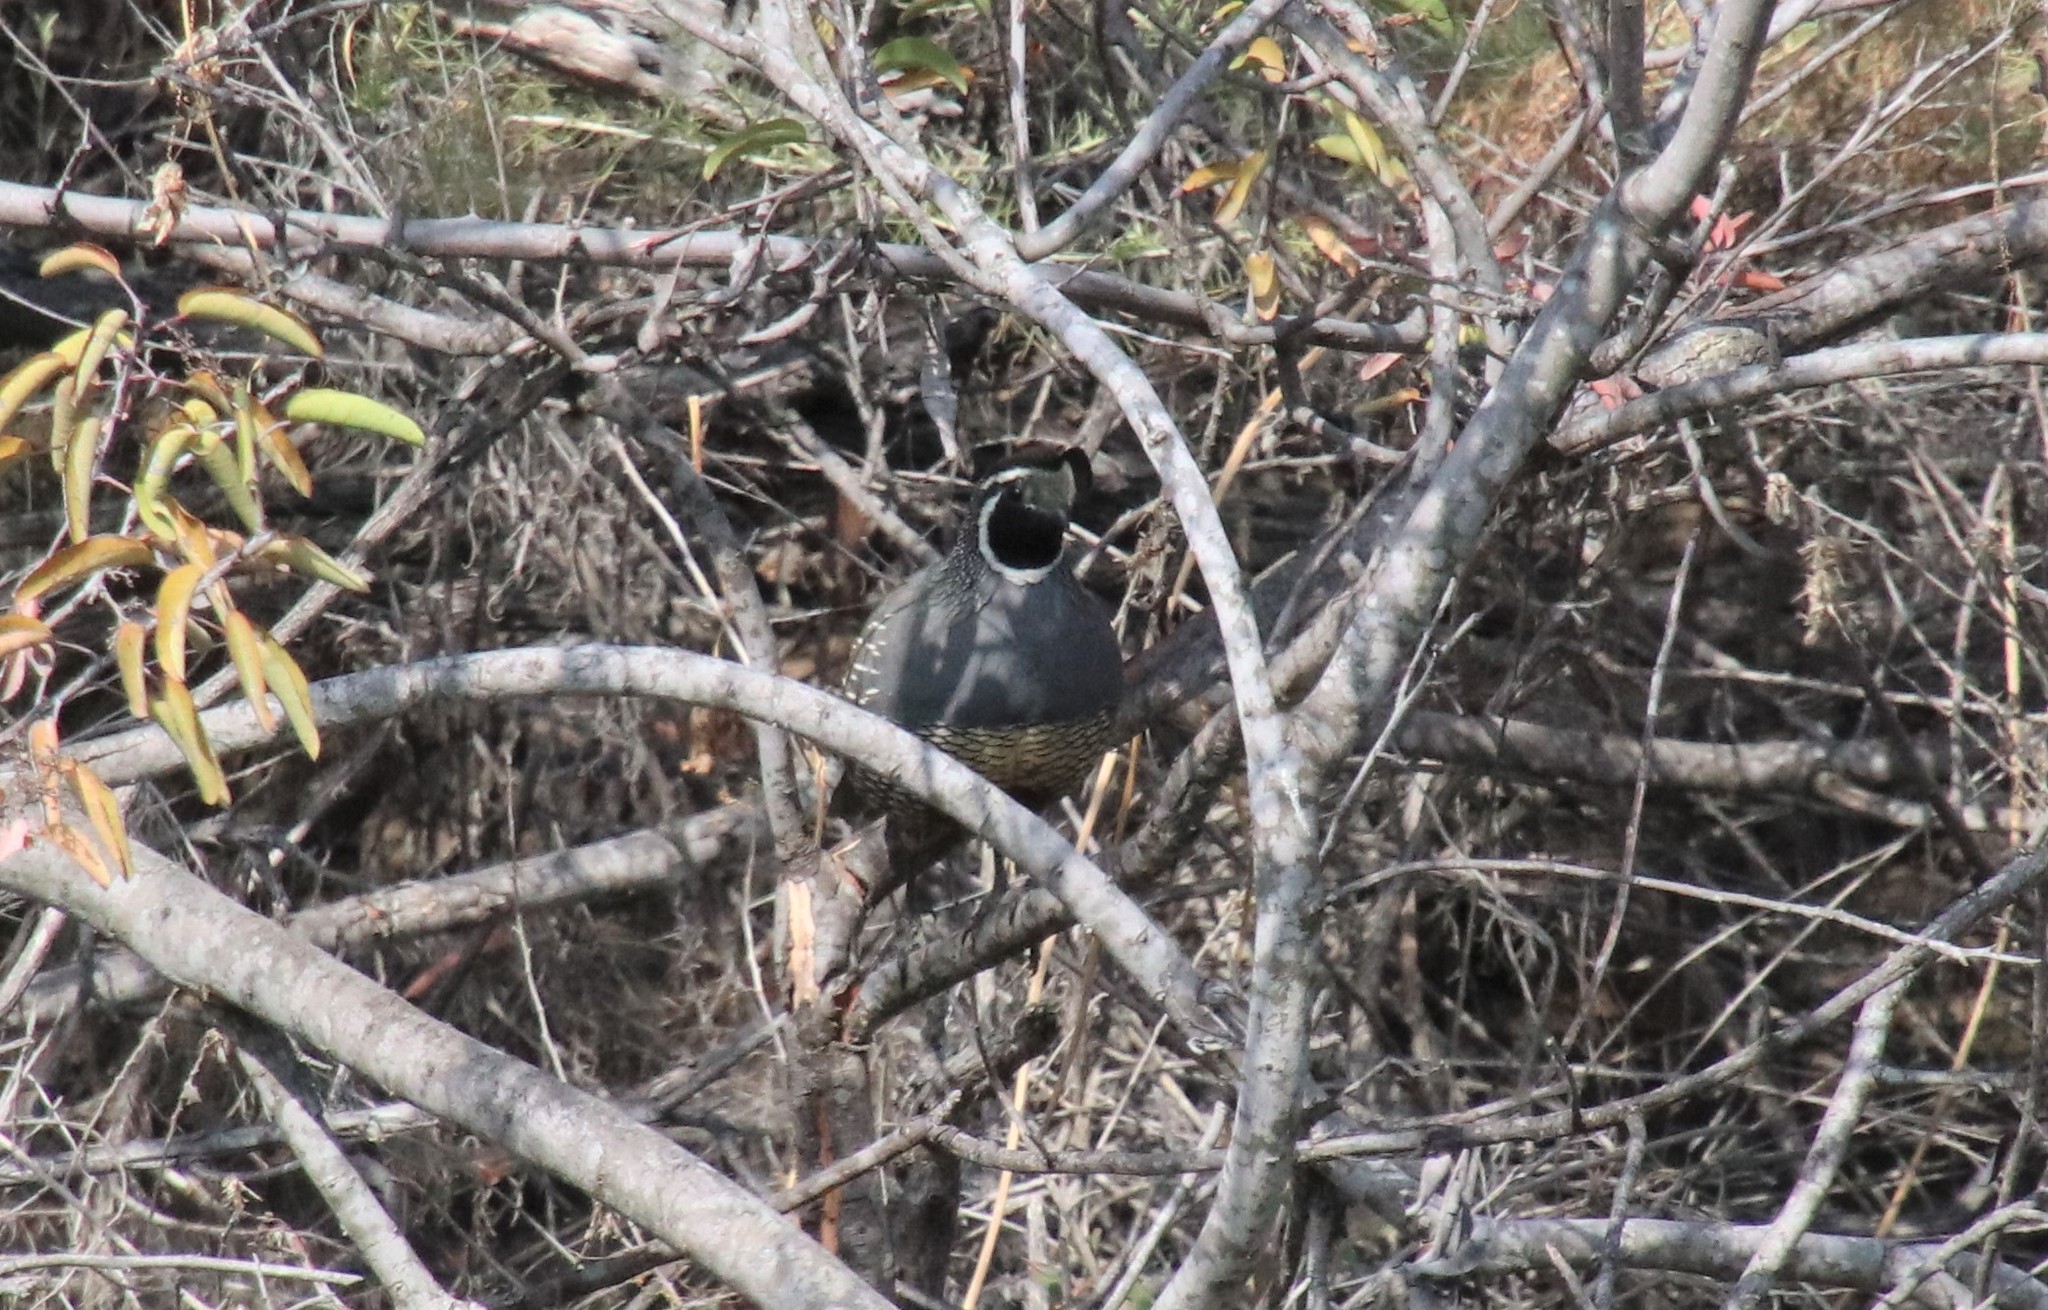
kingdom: Animalia
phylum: Chordata
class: Aves
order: Galliformes
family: Odontophoridae
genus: Callipepla
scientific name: Callipepla californica
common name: California quail
